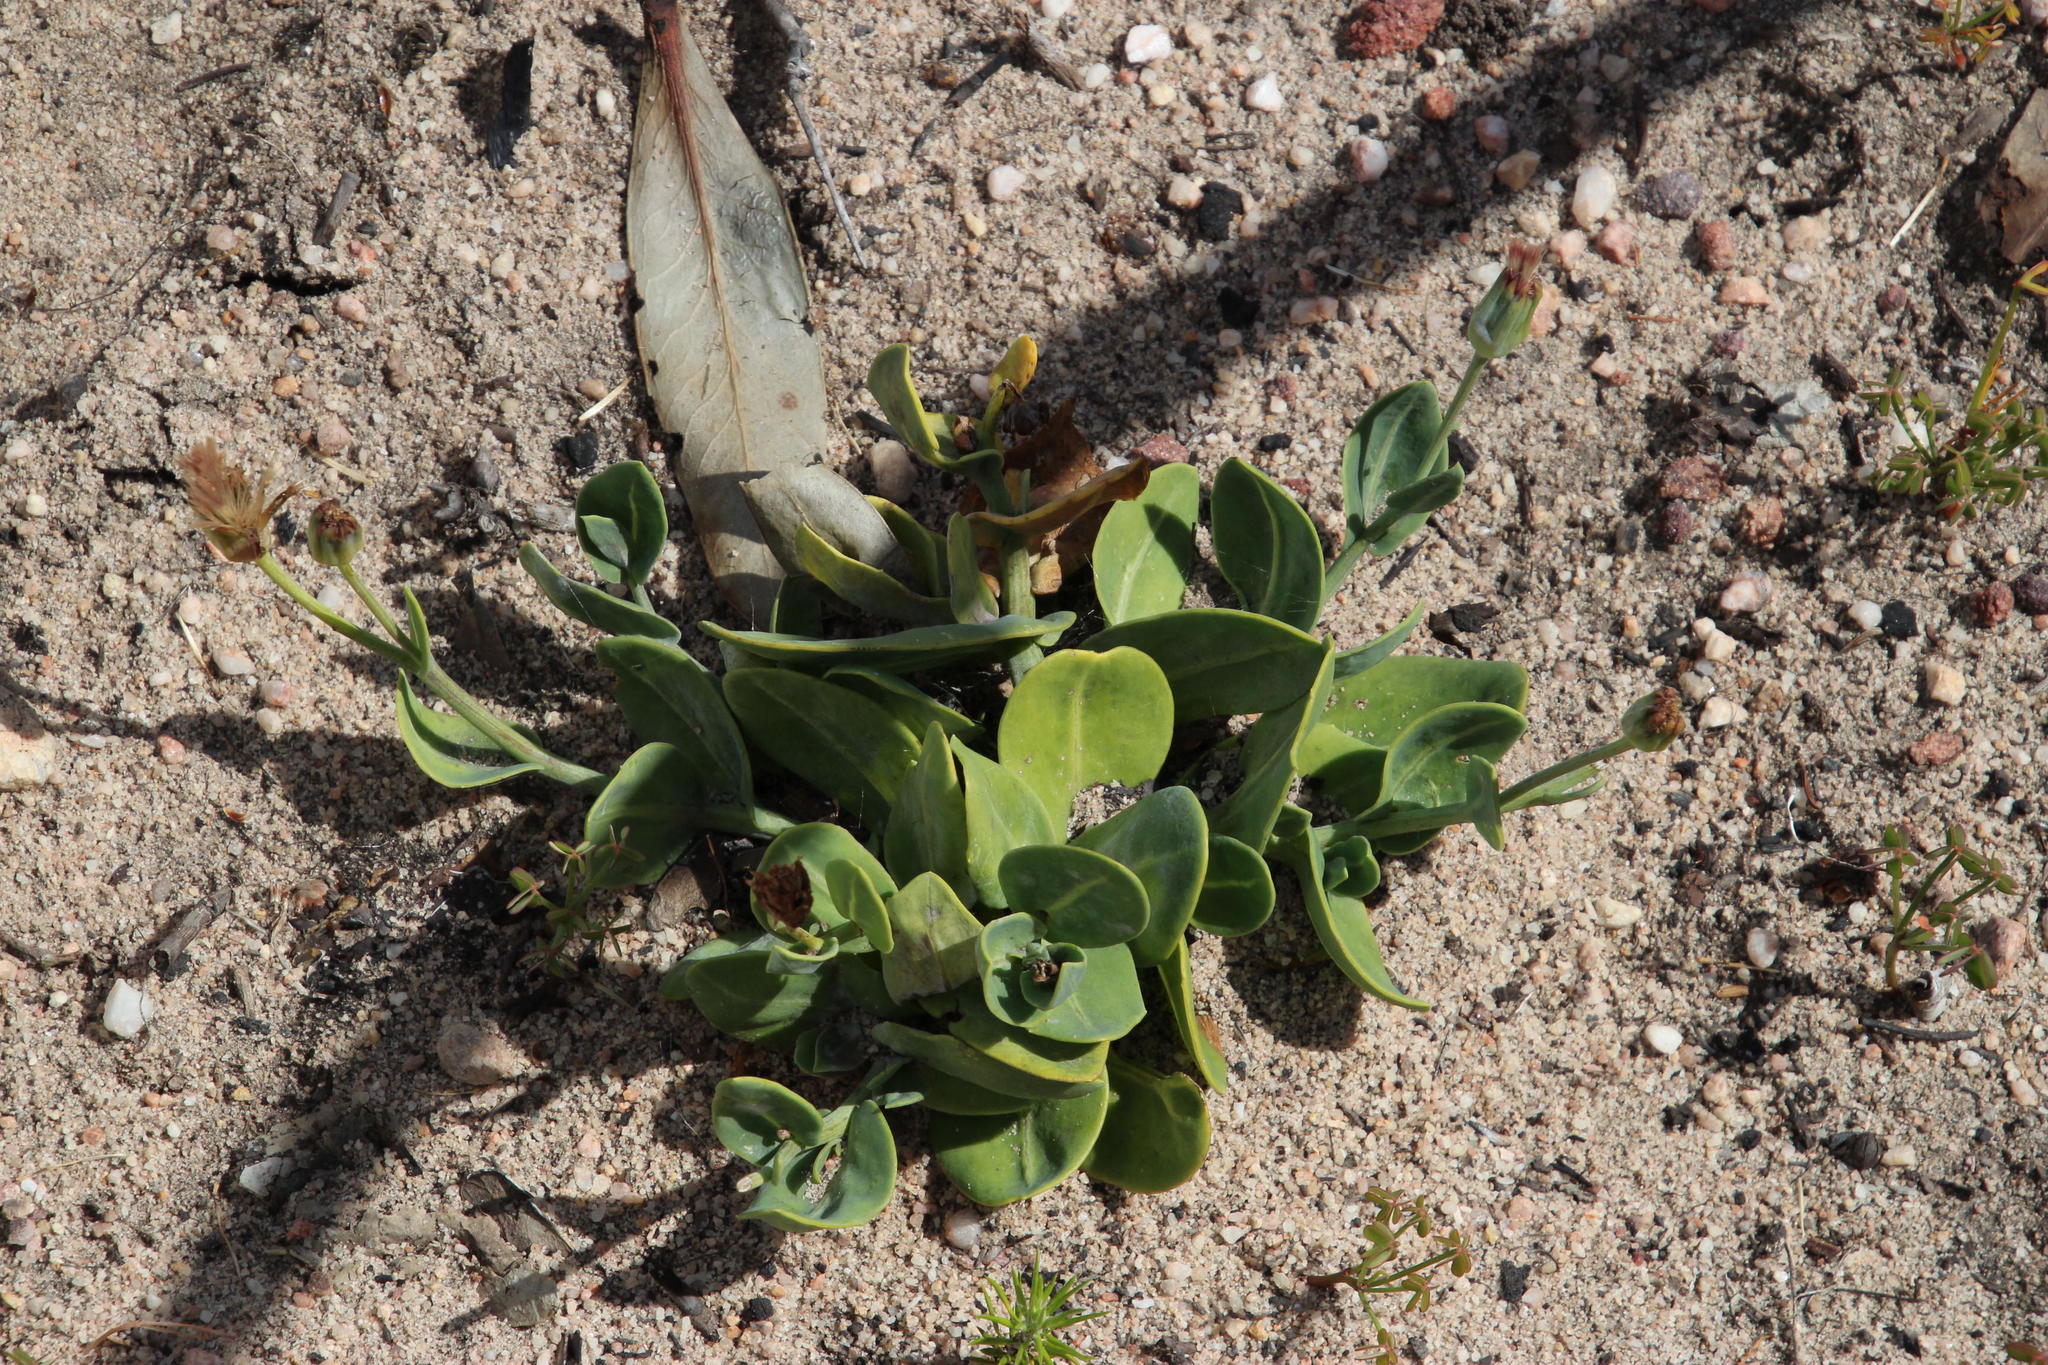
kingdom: Plantae
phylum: Tracheophyta
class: Magnoliopsida
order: Asterales
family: Asteraceae
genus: Othonna
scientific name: Othonna gymnodiscus
